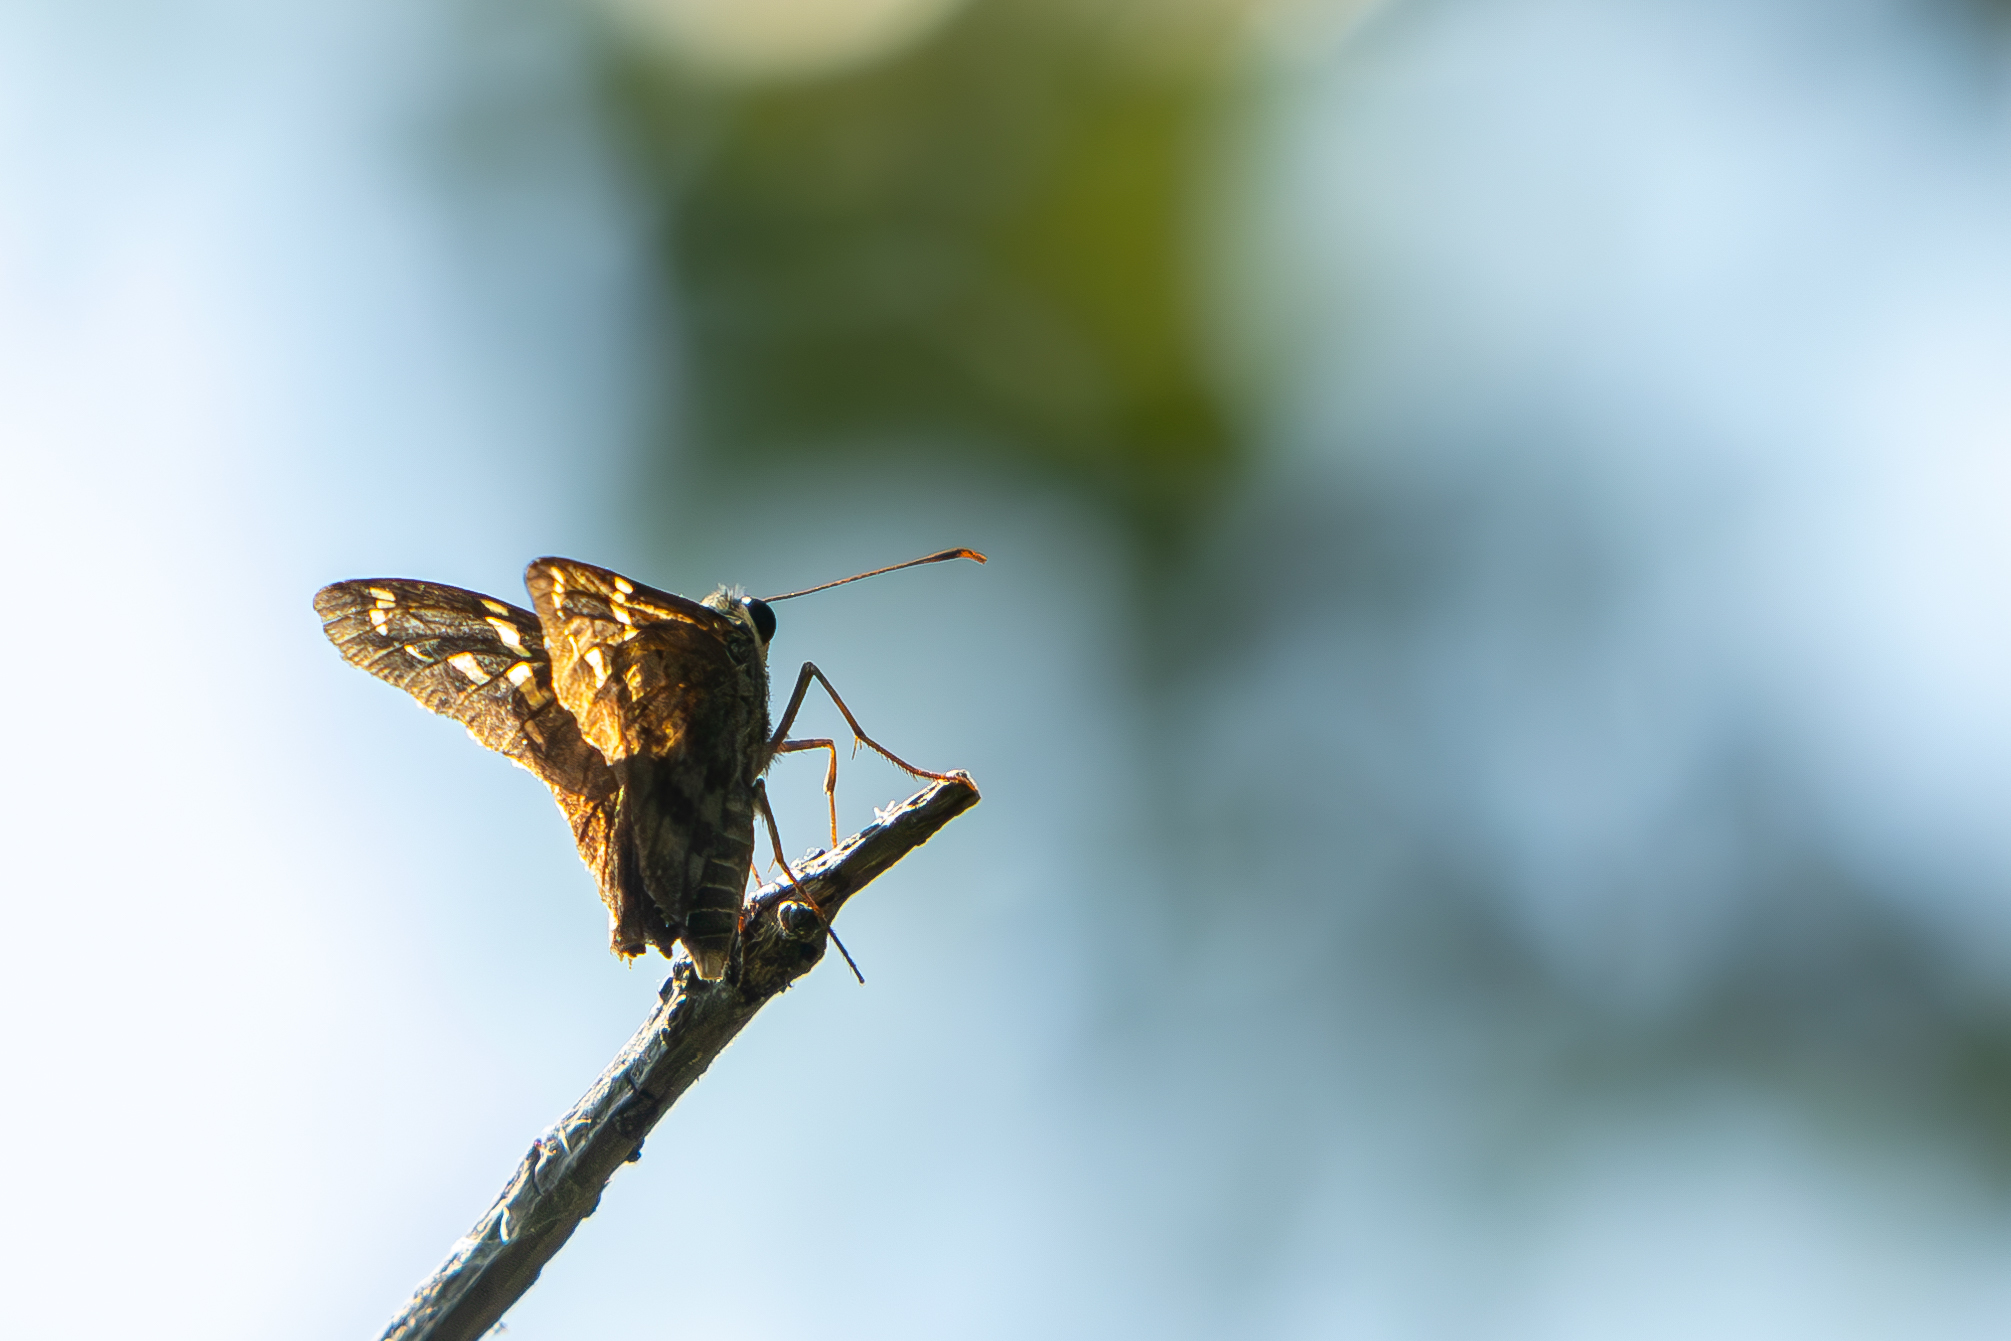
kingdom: Animalia
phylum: Arthropoda
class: Insecta
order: Lepidoptera
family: Hesperiidae
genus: Urbanus
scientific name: Urbanus proteus
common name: Long-tailed skipper
